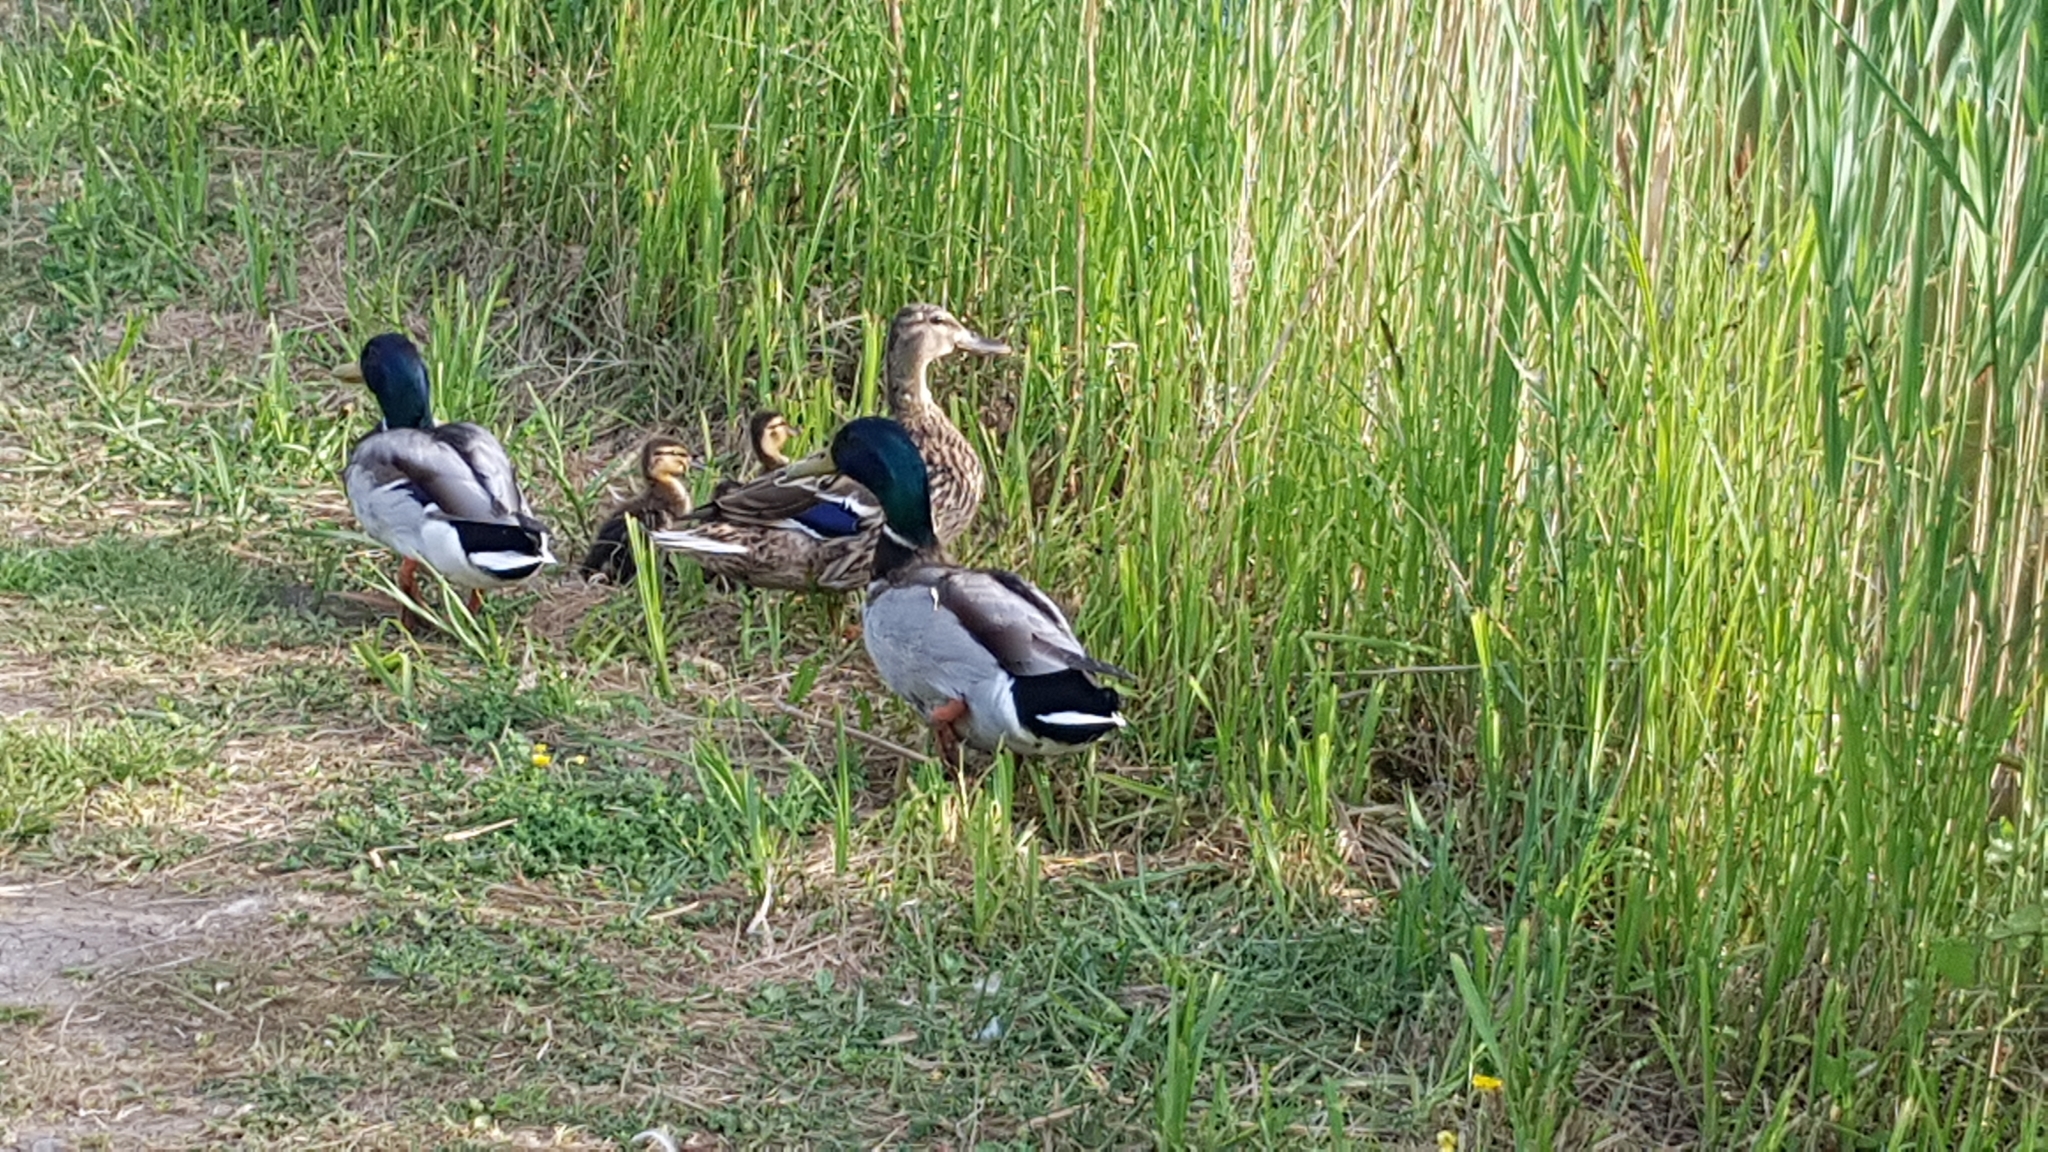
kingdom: Animalia
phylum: Chordata
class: Aves
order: Anseriformes
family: Anatidae
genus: Anas
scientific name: Anas platyrhynchos
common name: Mallard
